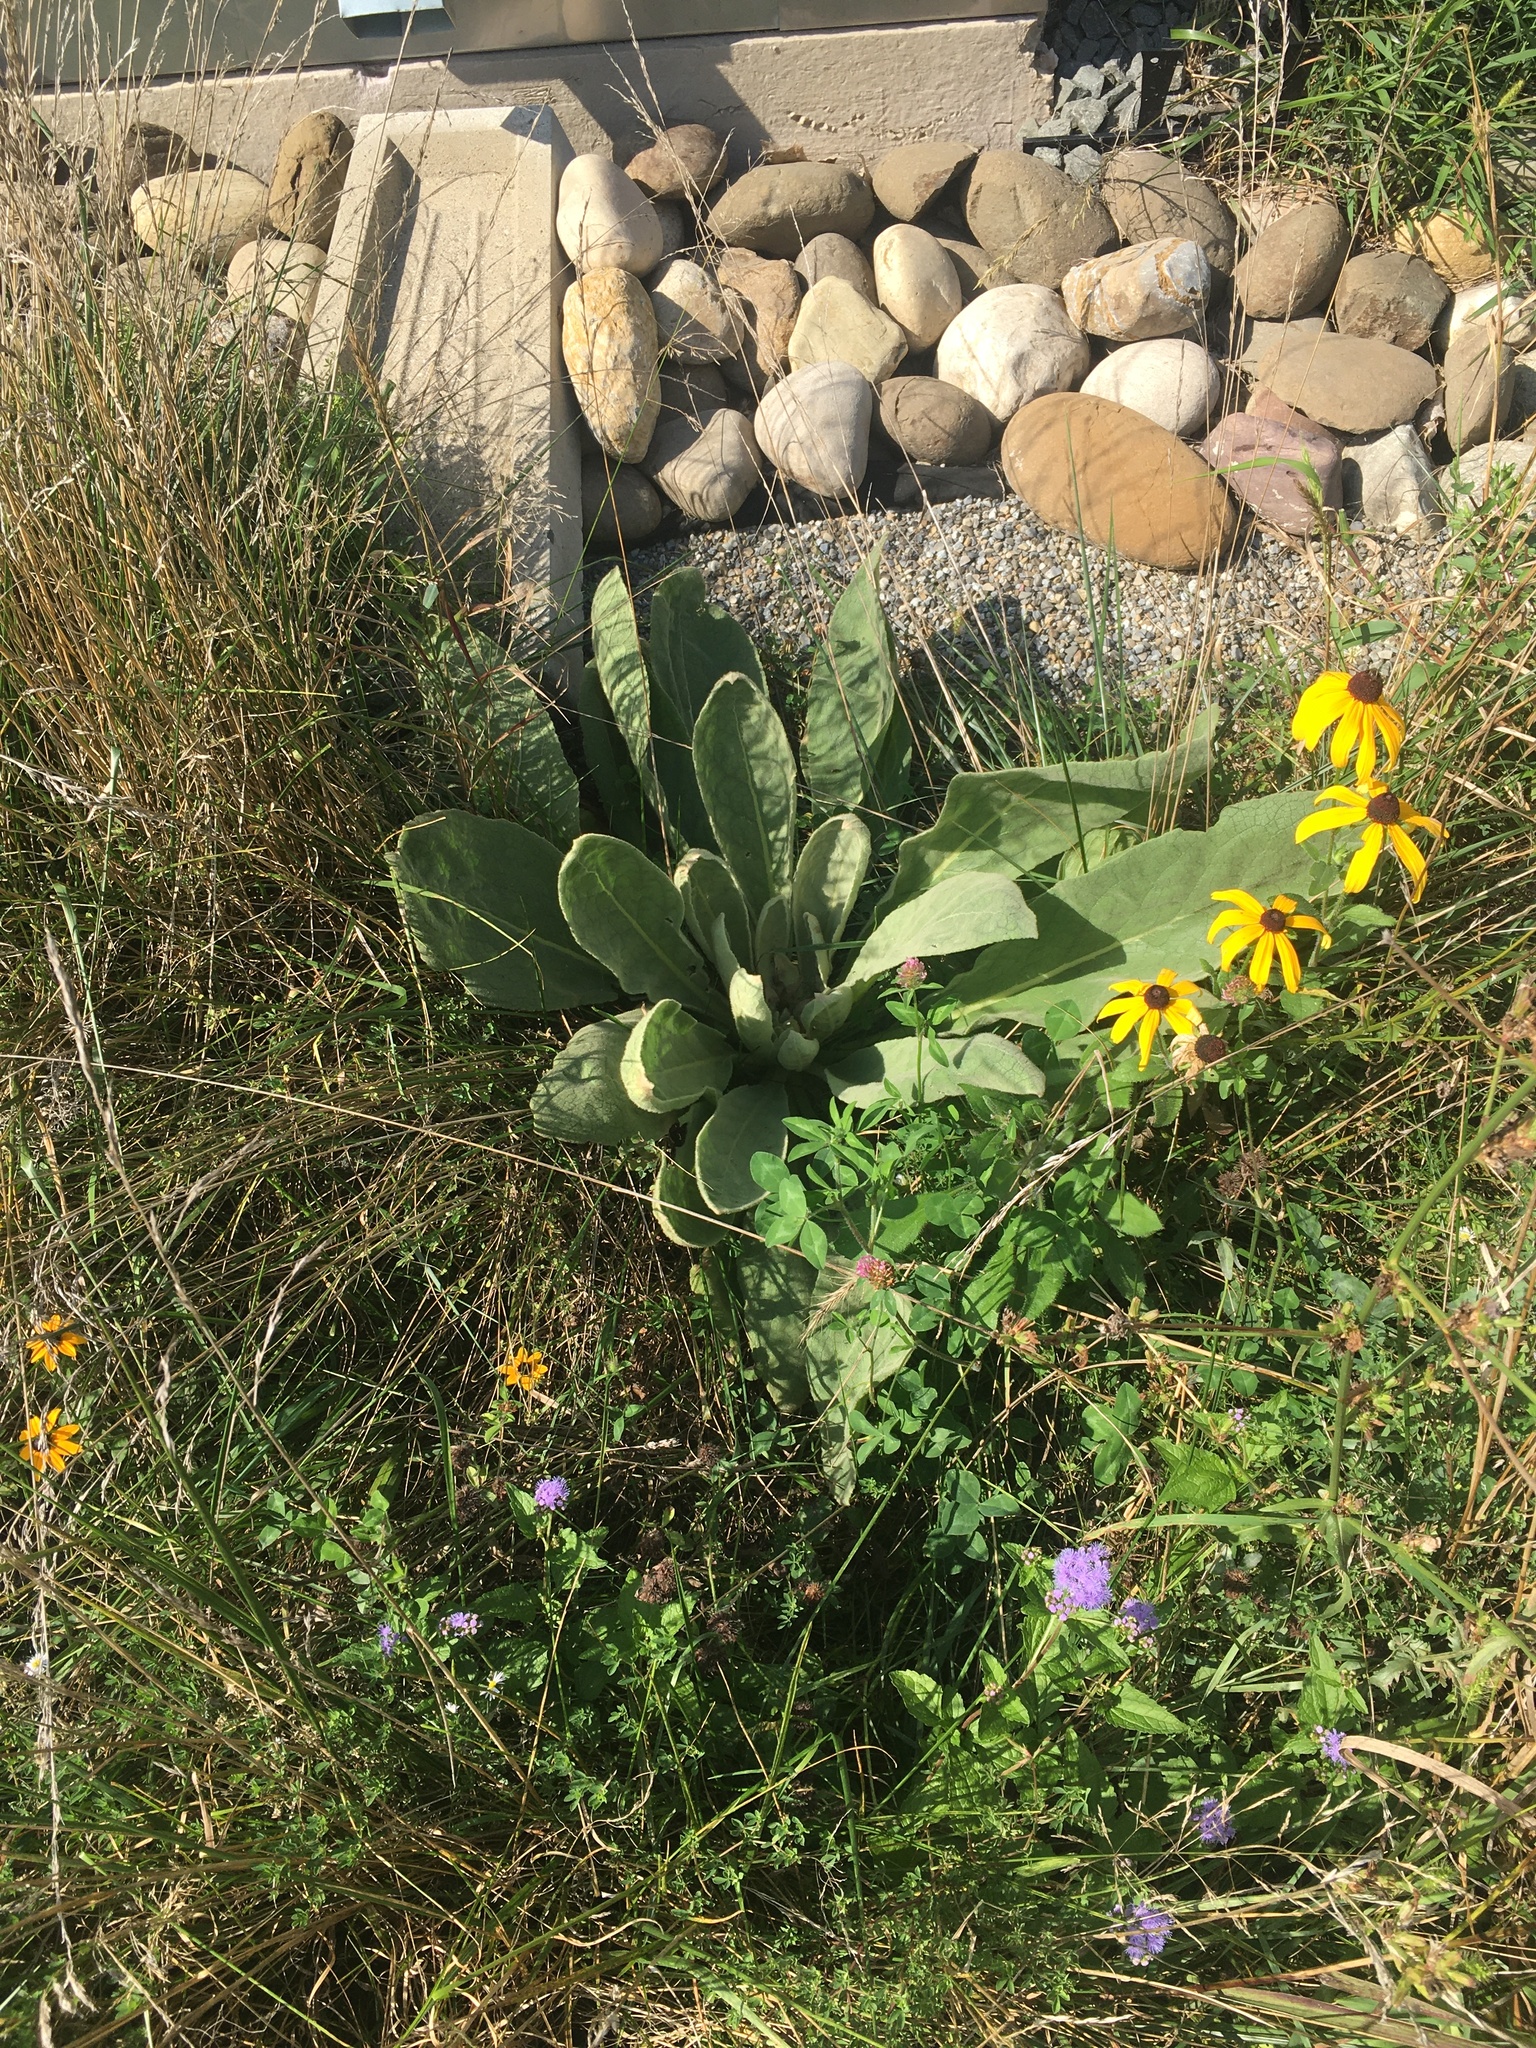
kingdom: Plantae
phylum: Tracheophyta
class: Magnoliopsida
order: Lamiales
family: Scrophulariaceae
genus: Verbascum
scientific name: Verbascum thapsus
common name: Common mullein
